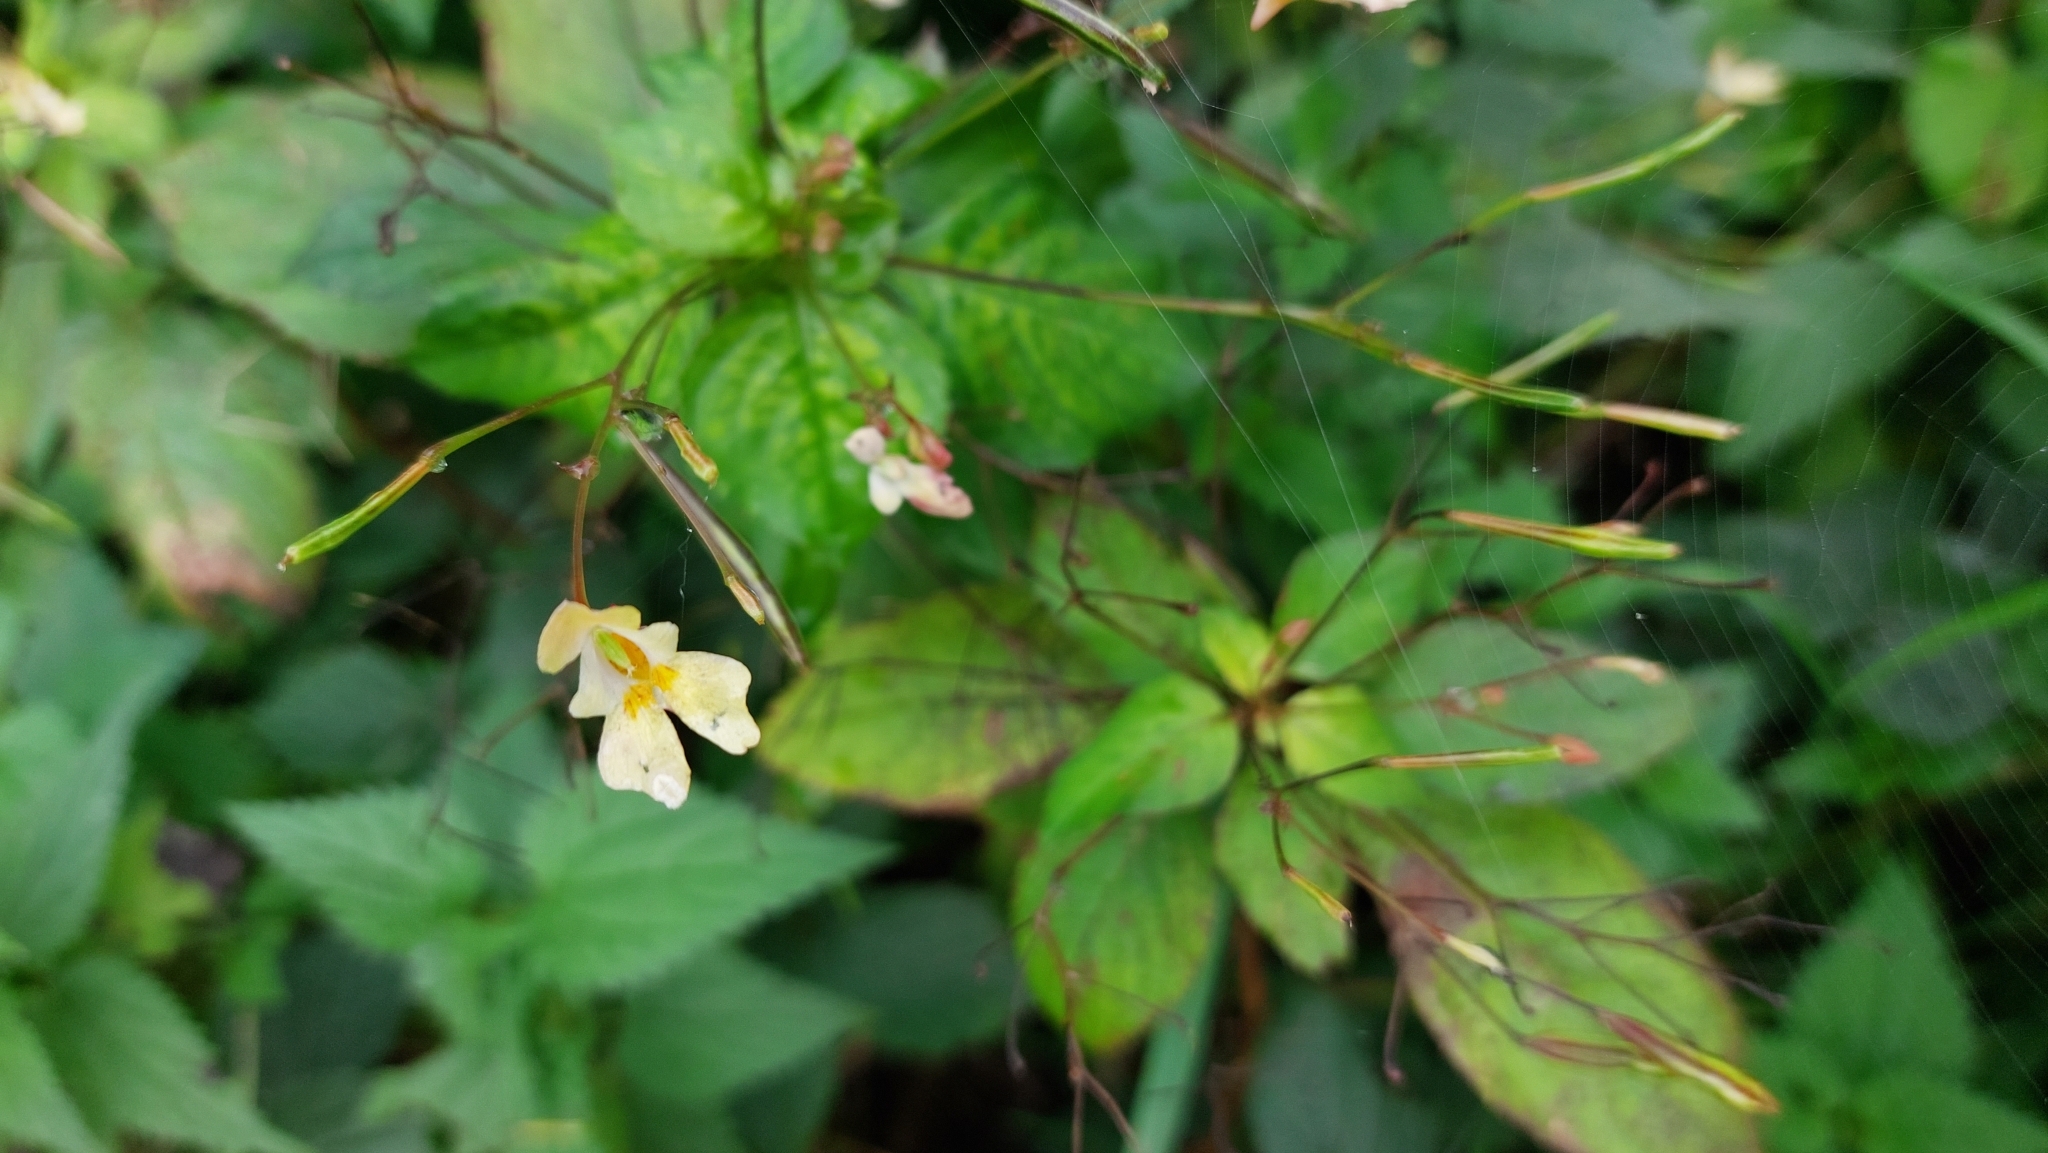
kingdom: Plantae
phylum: Tracheophyta
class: Magnoliopsida
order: Ericales
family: Balsaminaceae
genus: Impatiens
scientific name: Impatiens parviflora
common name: Small balsam
